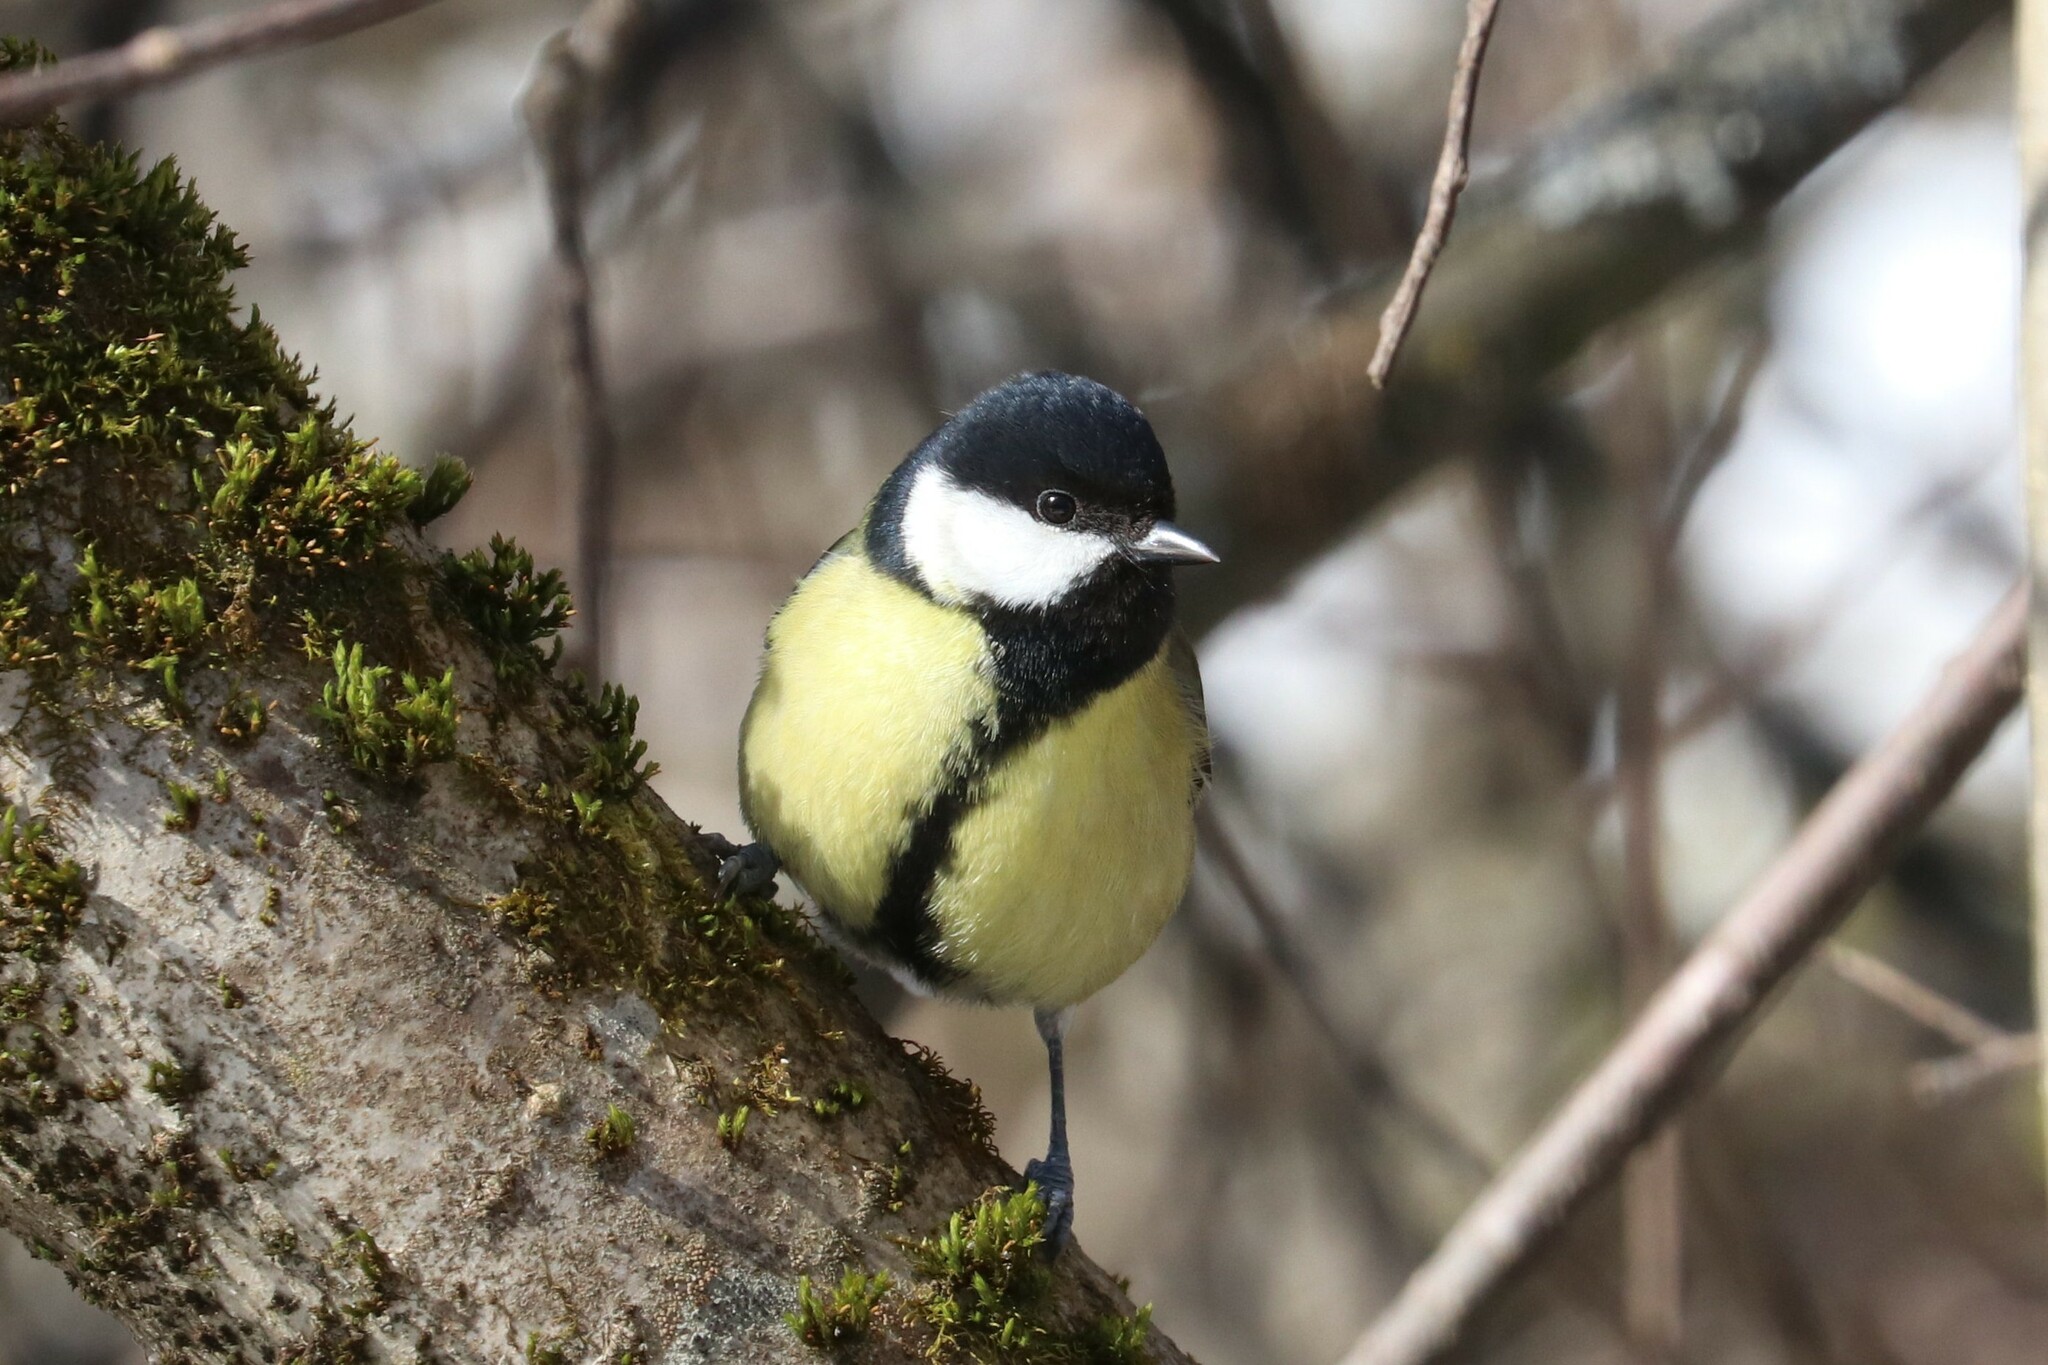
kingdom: Animalia
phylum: Chordata
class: Aves
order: Passeriformes
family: Paridae
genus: Parus
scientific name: Parus major
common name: Great tit
